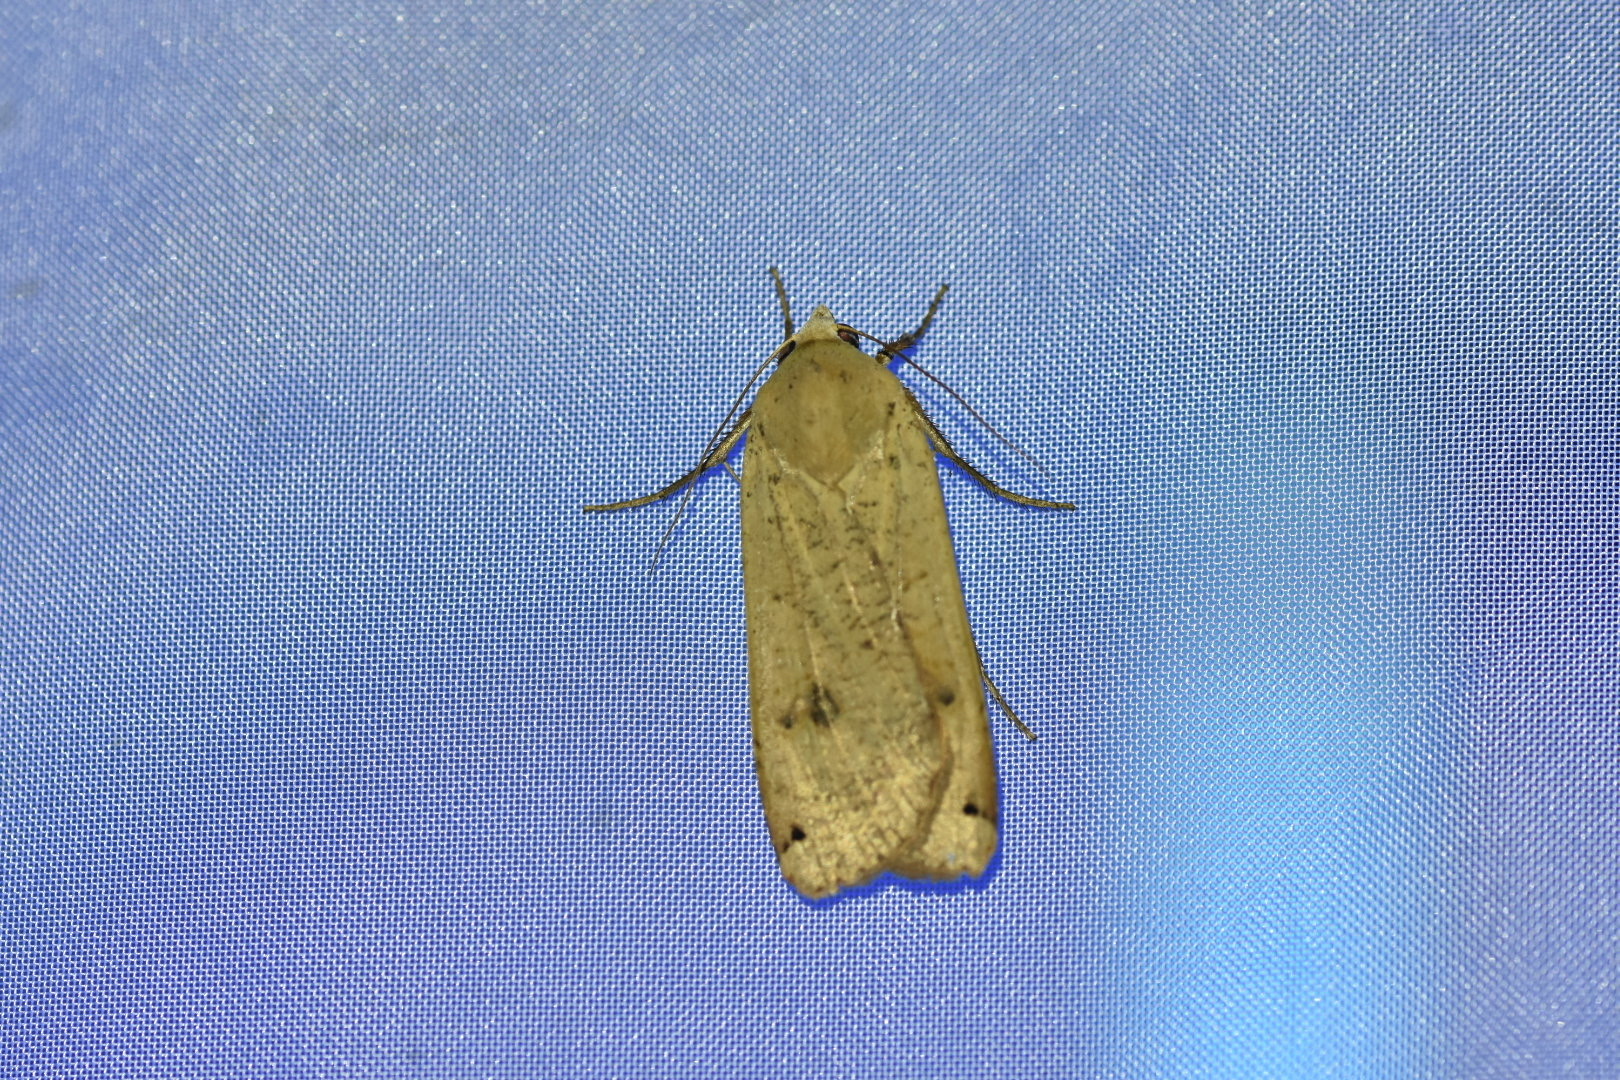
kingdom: Animalia
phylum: Arthropoda
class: Insecta
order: Lepidoptera
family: Noctuidae
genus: Noctua
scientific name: Noctua pronuba
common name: Large yellow underwing
